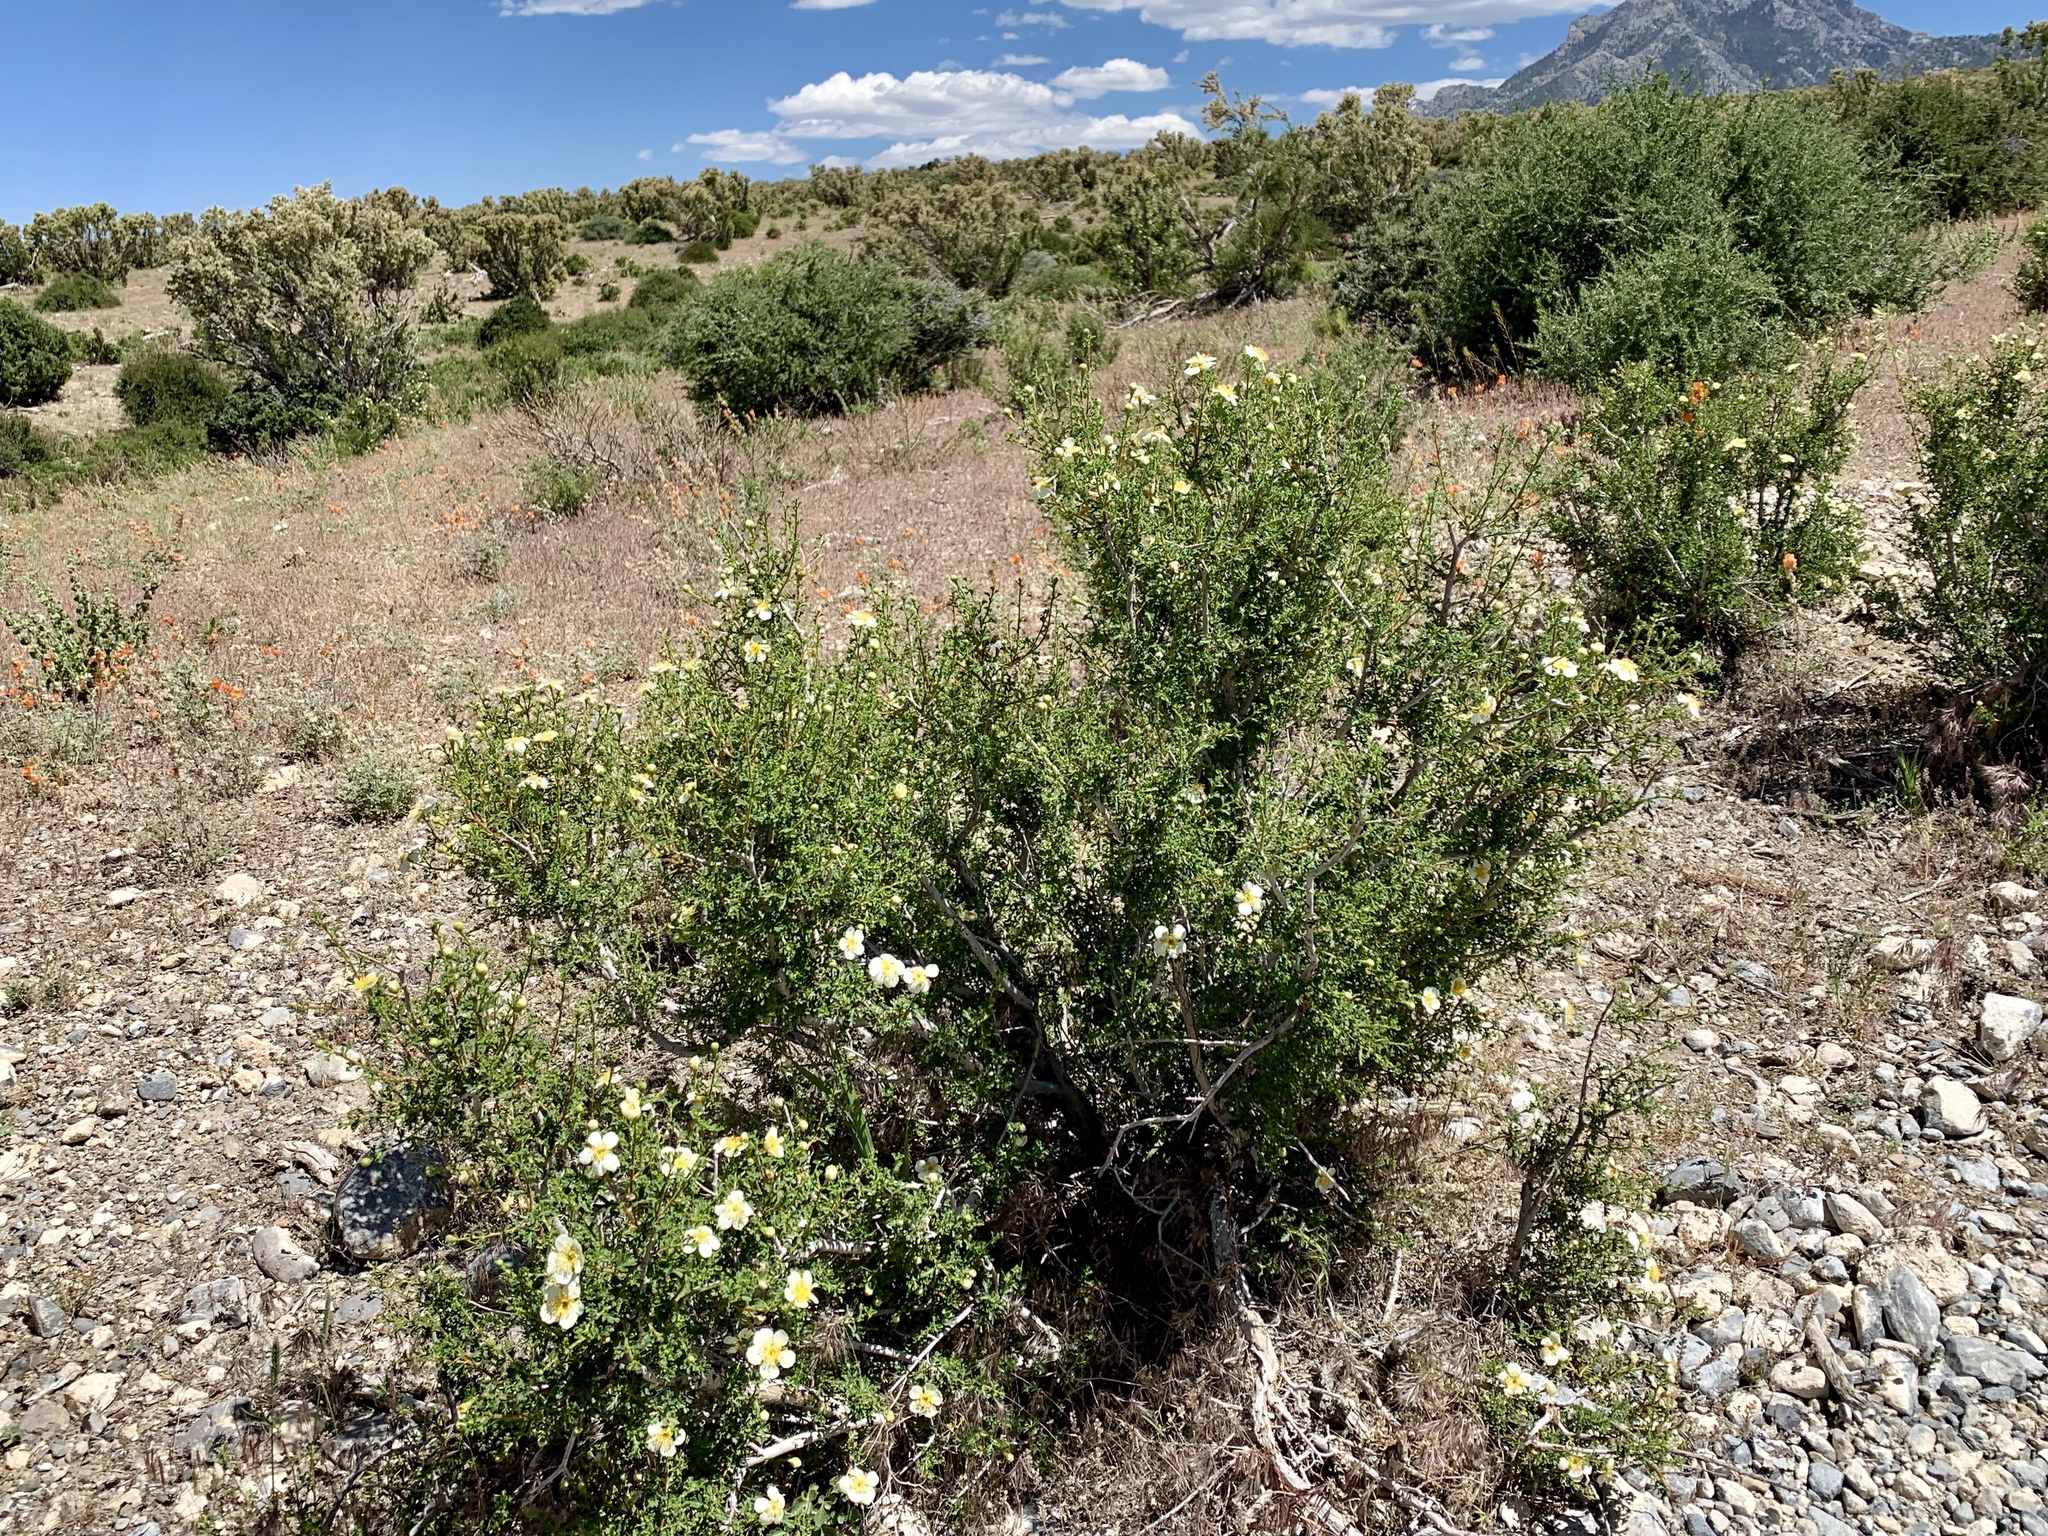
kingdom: Plantae
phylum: Tracheophyta
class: Magnoliopsida
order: Rosales
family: Rosaceae
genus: Purshia
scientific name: Purshia stansburiana
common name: Stansbury's cliffrose
